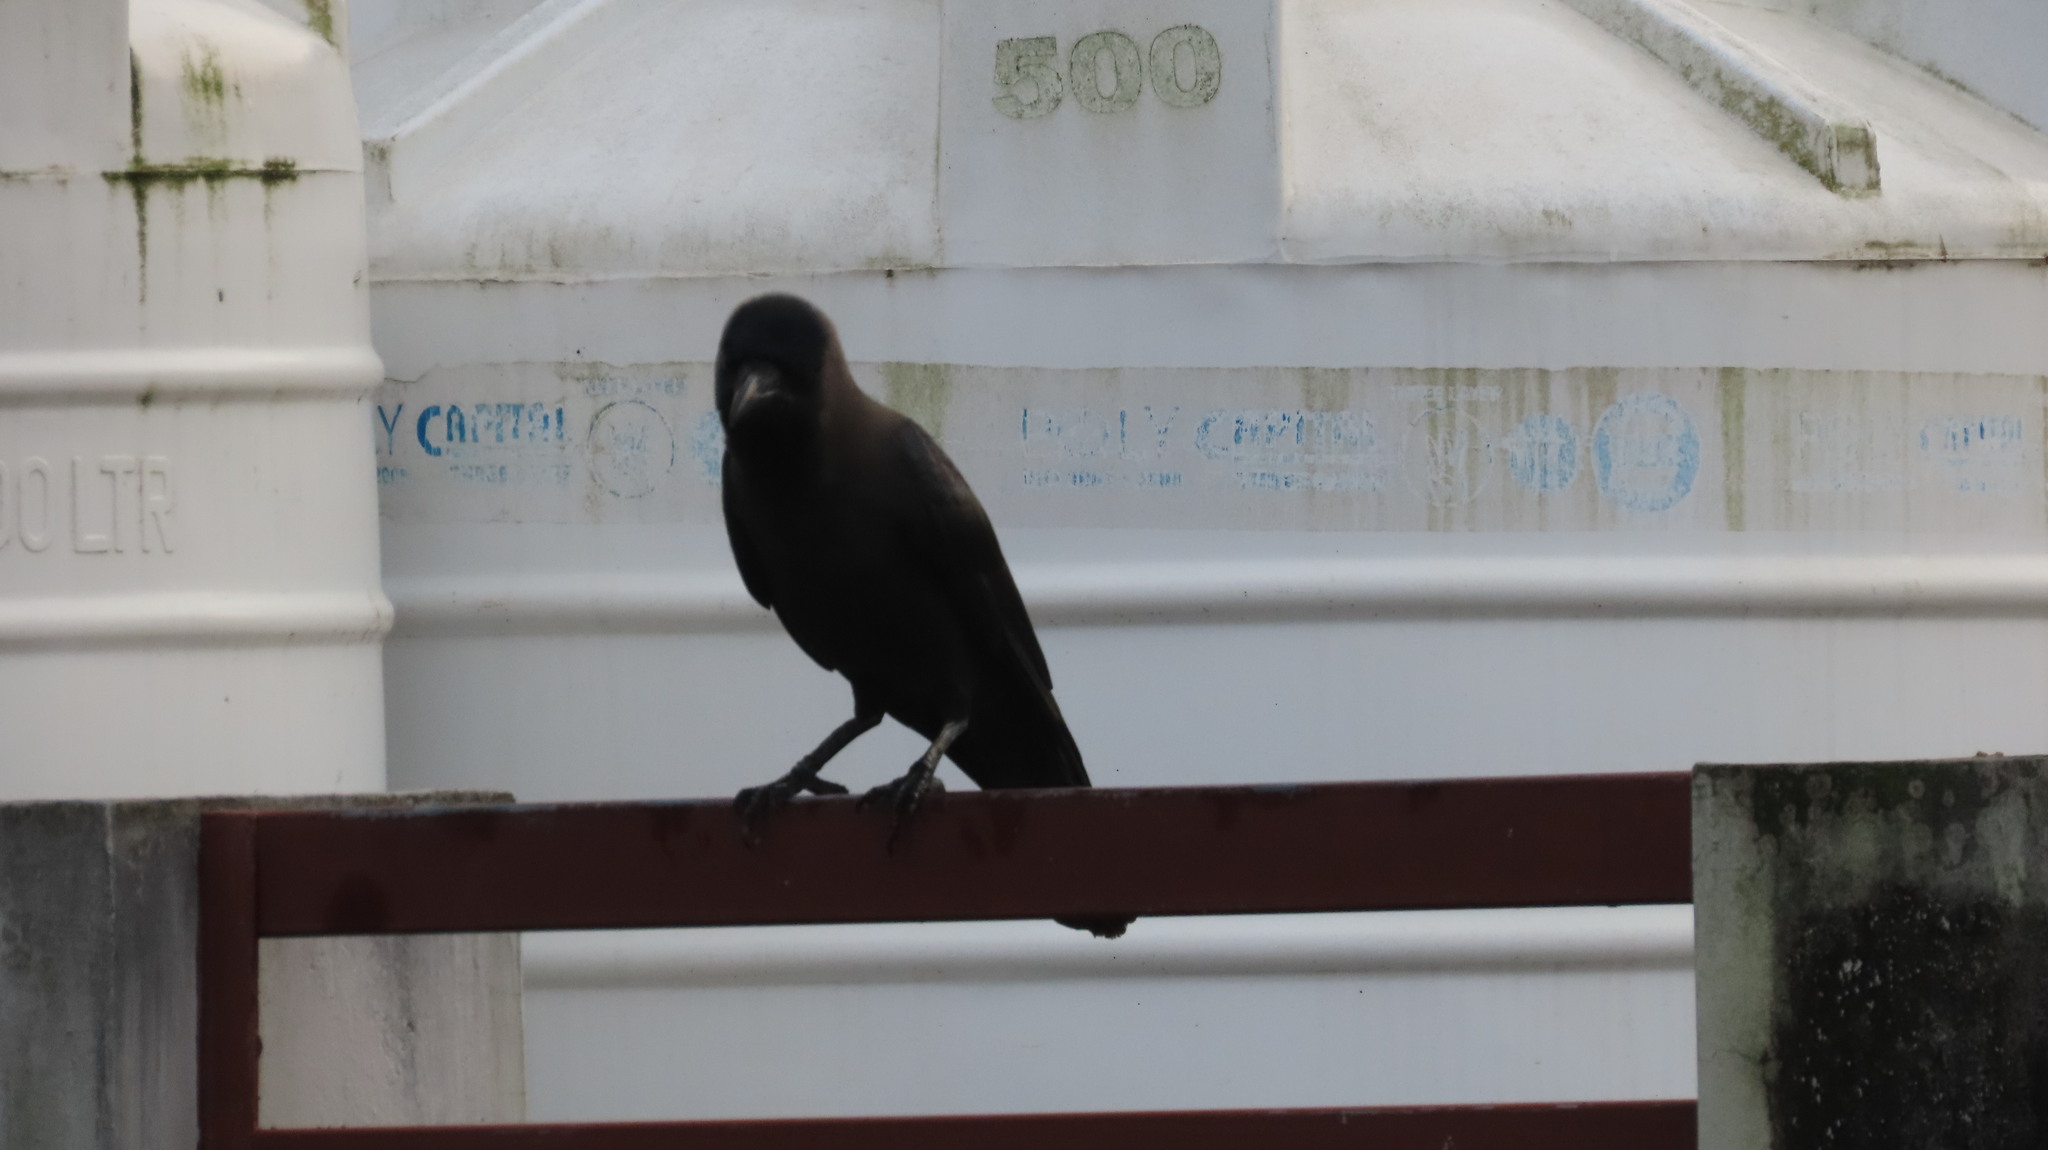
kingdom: Animalia
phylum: Chordata
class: Aves
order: Passeriformes
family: Corvidae
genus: Corvus
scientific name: Corvus splendens
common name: House crow
